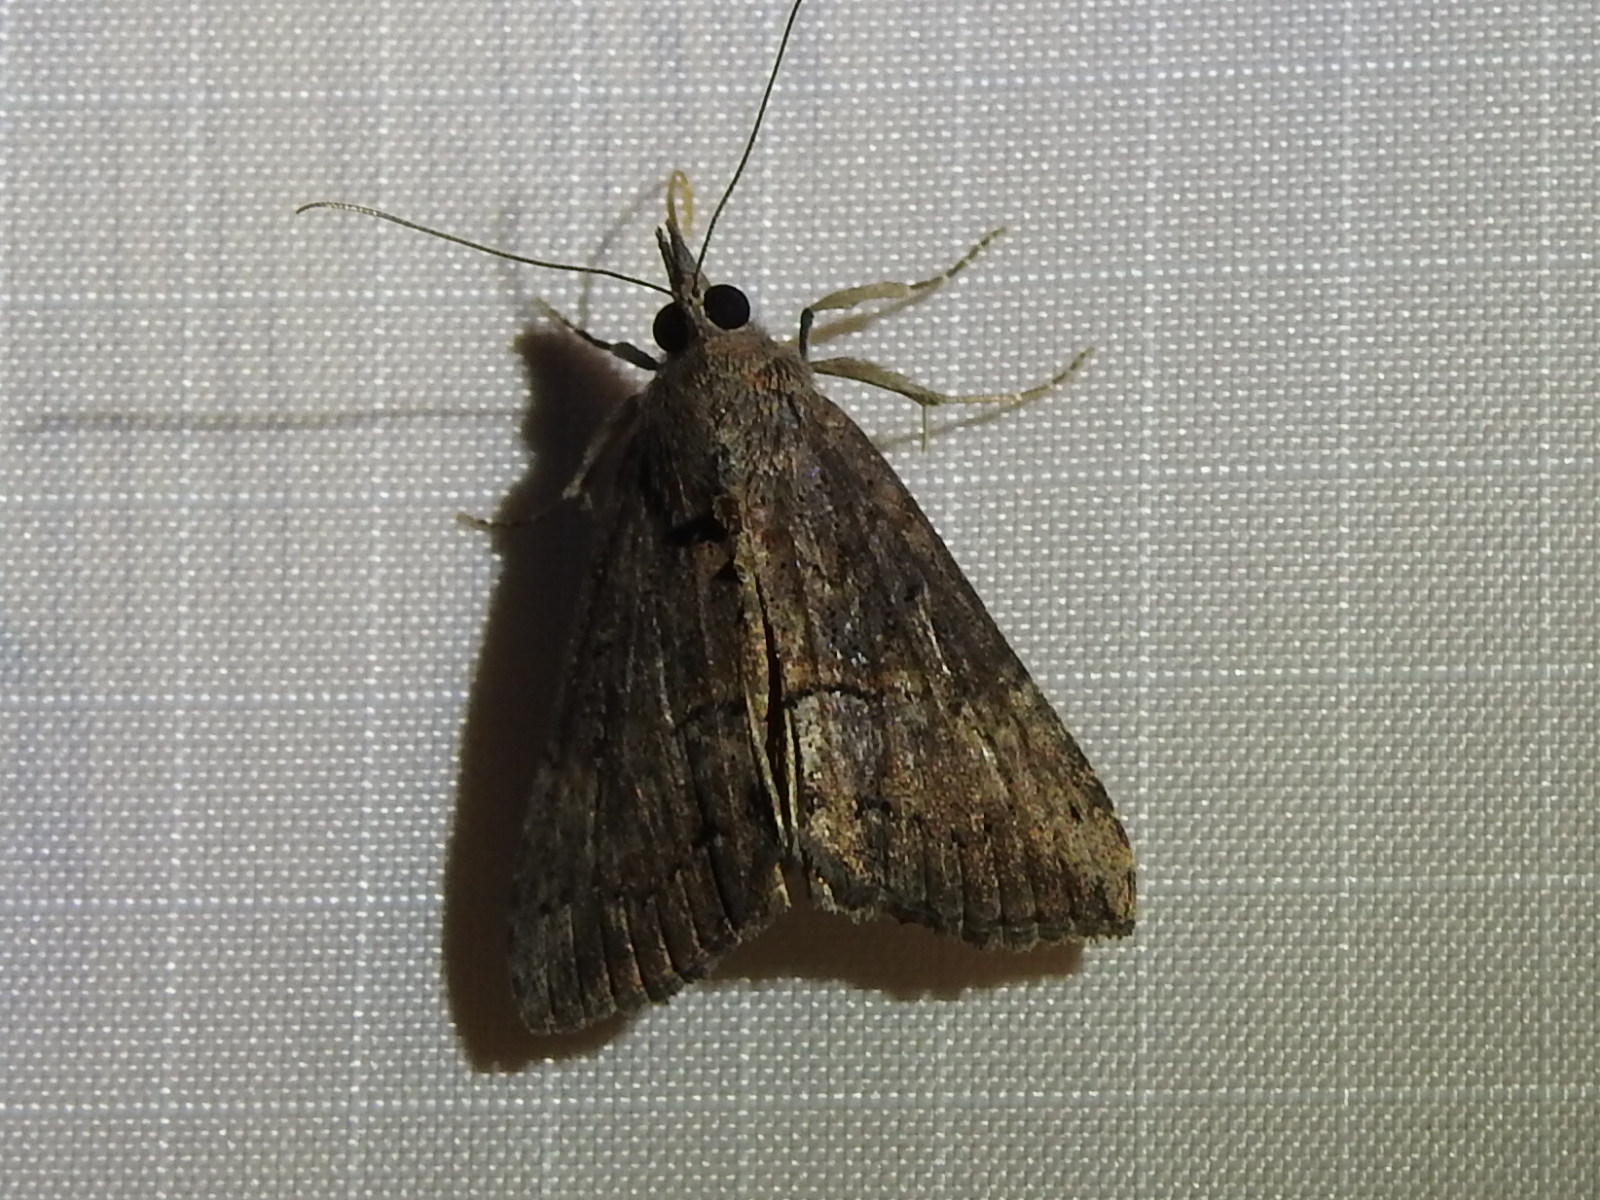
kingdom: Animalia
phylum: Arthropoda
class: Insecta
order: Lepidoptera
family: Erebidae
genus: Hypena
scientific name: Hypena scabra
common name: Green cloverworm
